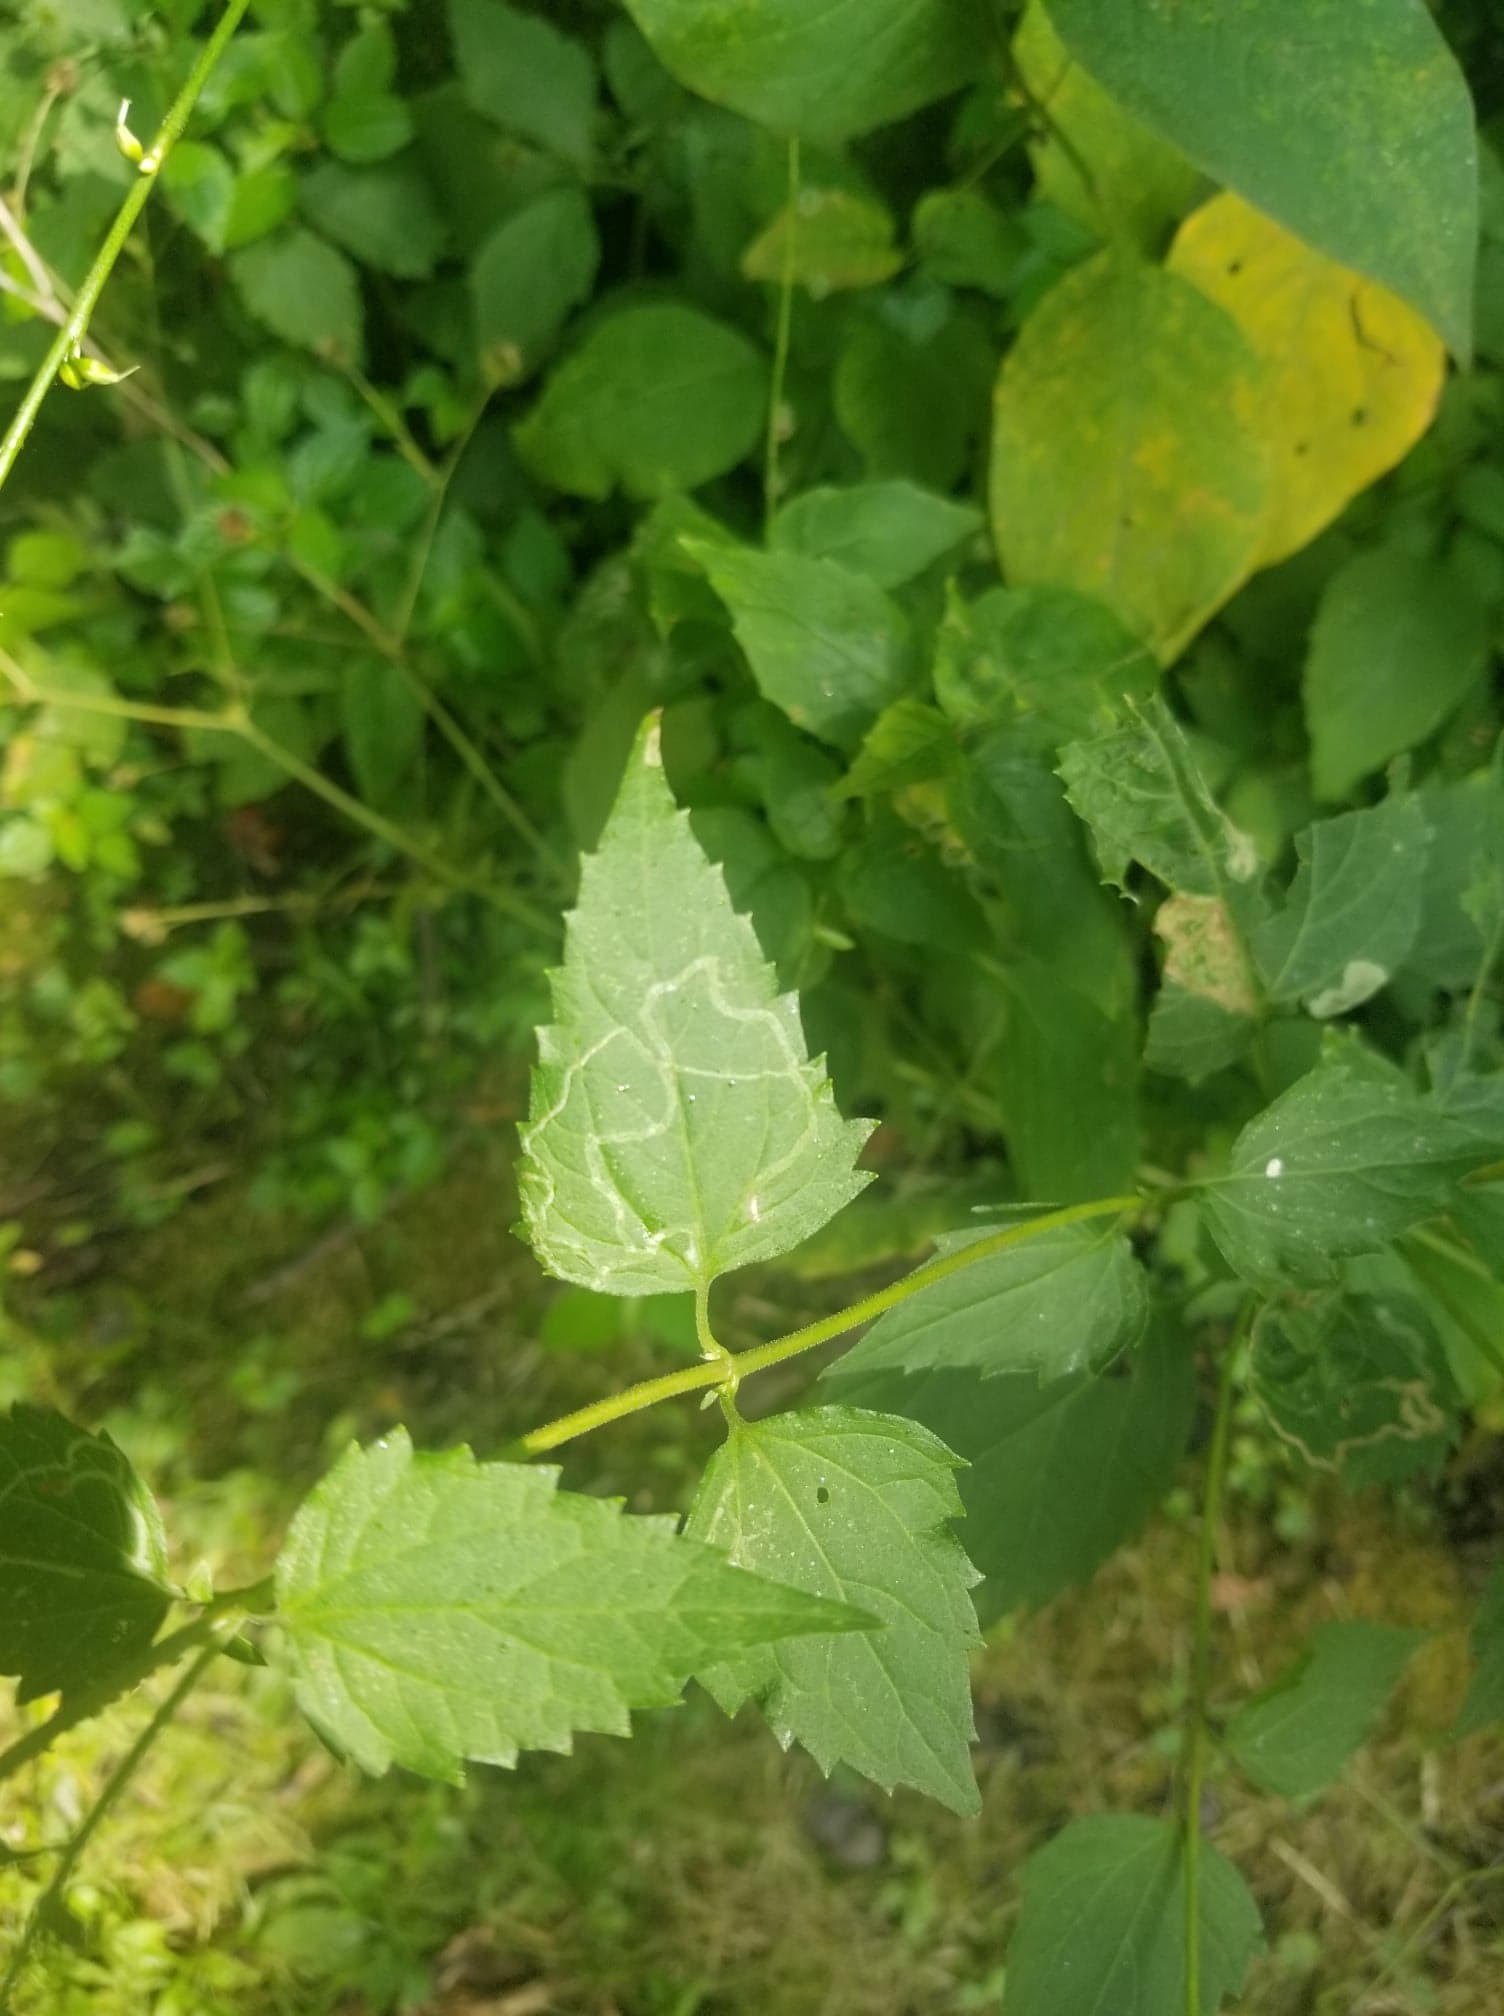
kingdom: Plantae
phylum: Tracheophyta
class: Magnoliopsida
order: Asterales
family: Asteraceae
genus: Ageratina
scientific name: Ageratina altissima
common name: White snakeroot
